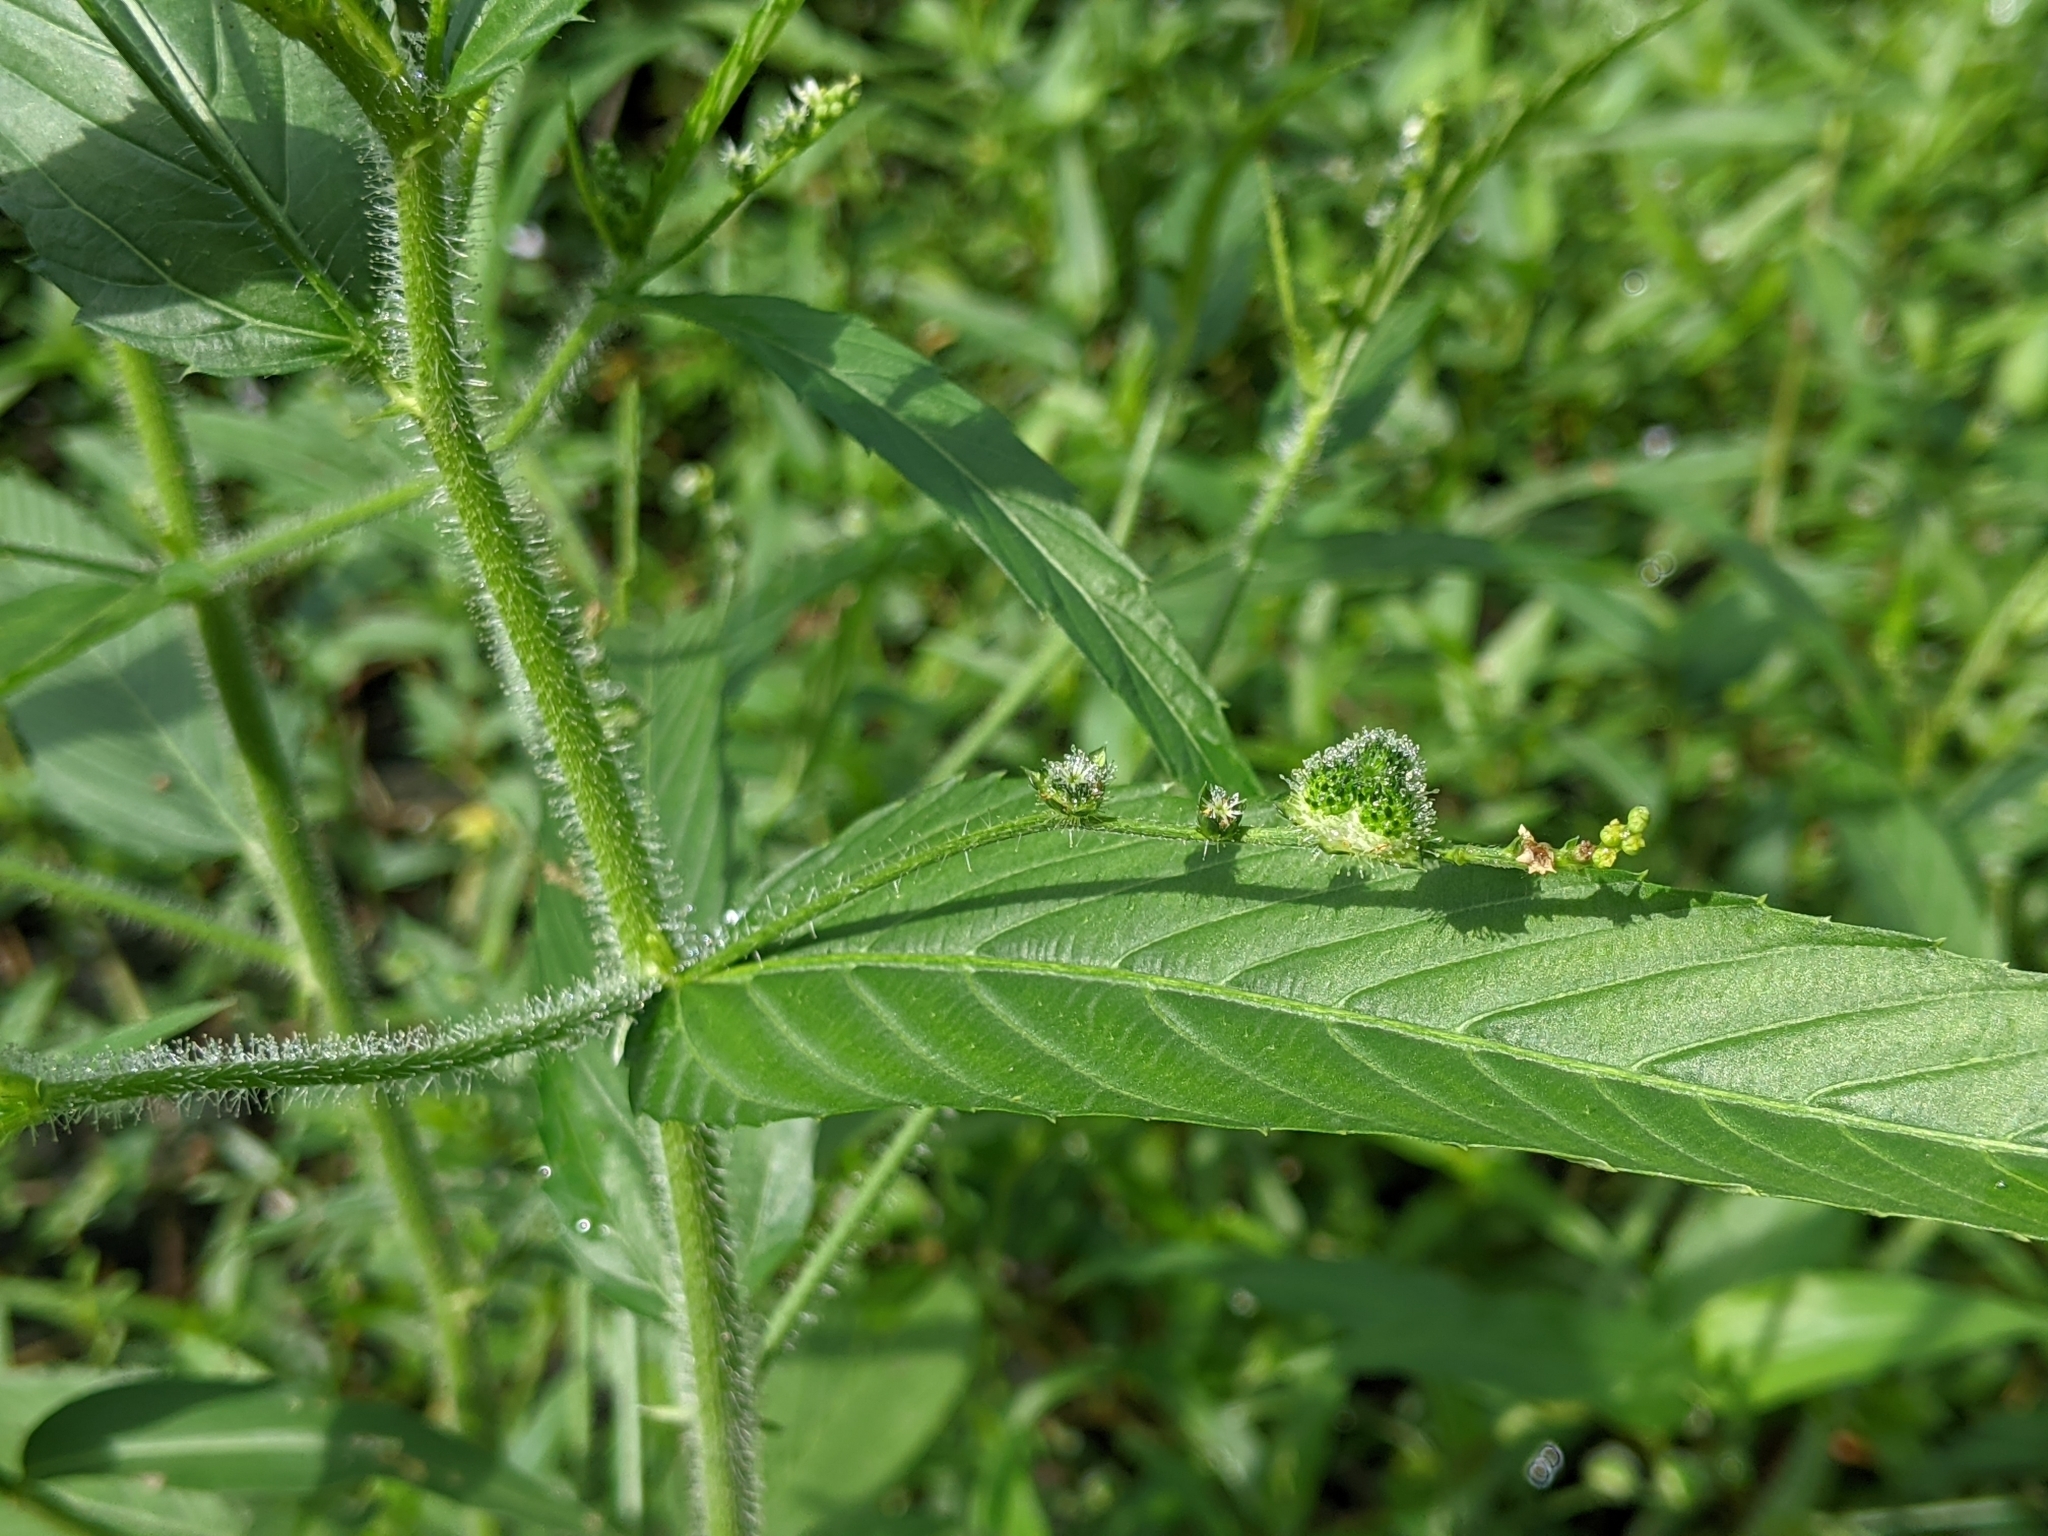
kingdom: Plantae
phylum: Tracheophyta
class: Magnoliopsida
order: Malpighiales
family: Euphorbiaceae
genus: Caperonia
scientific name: Caperonia palustris
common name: Sacatrapo
